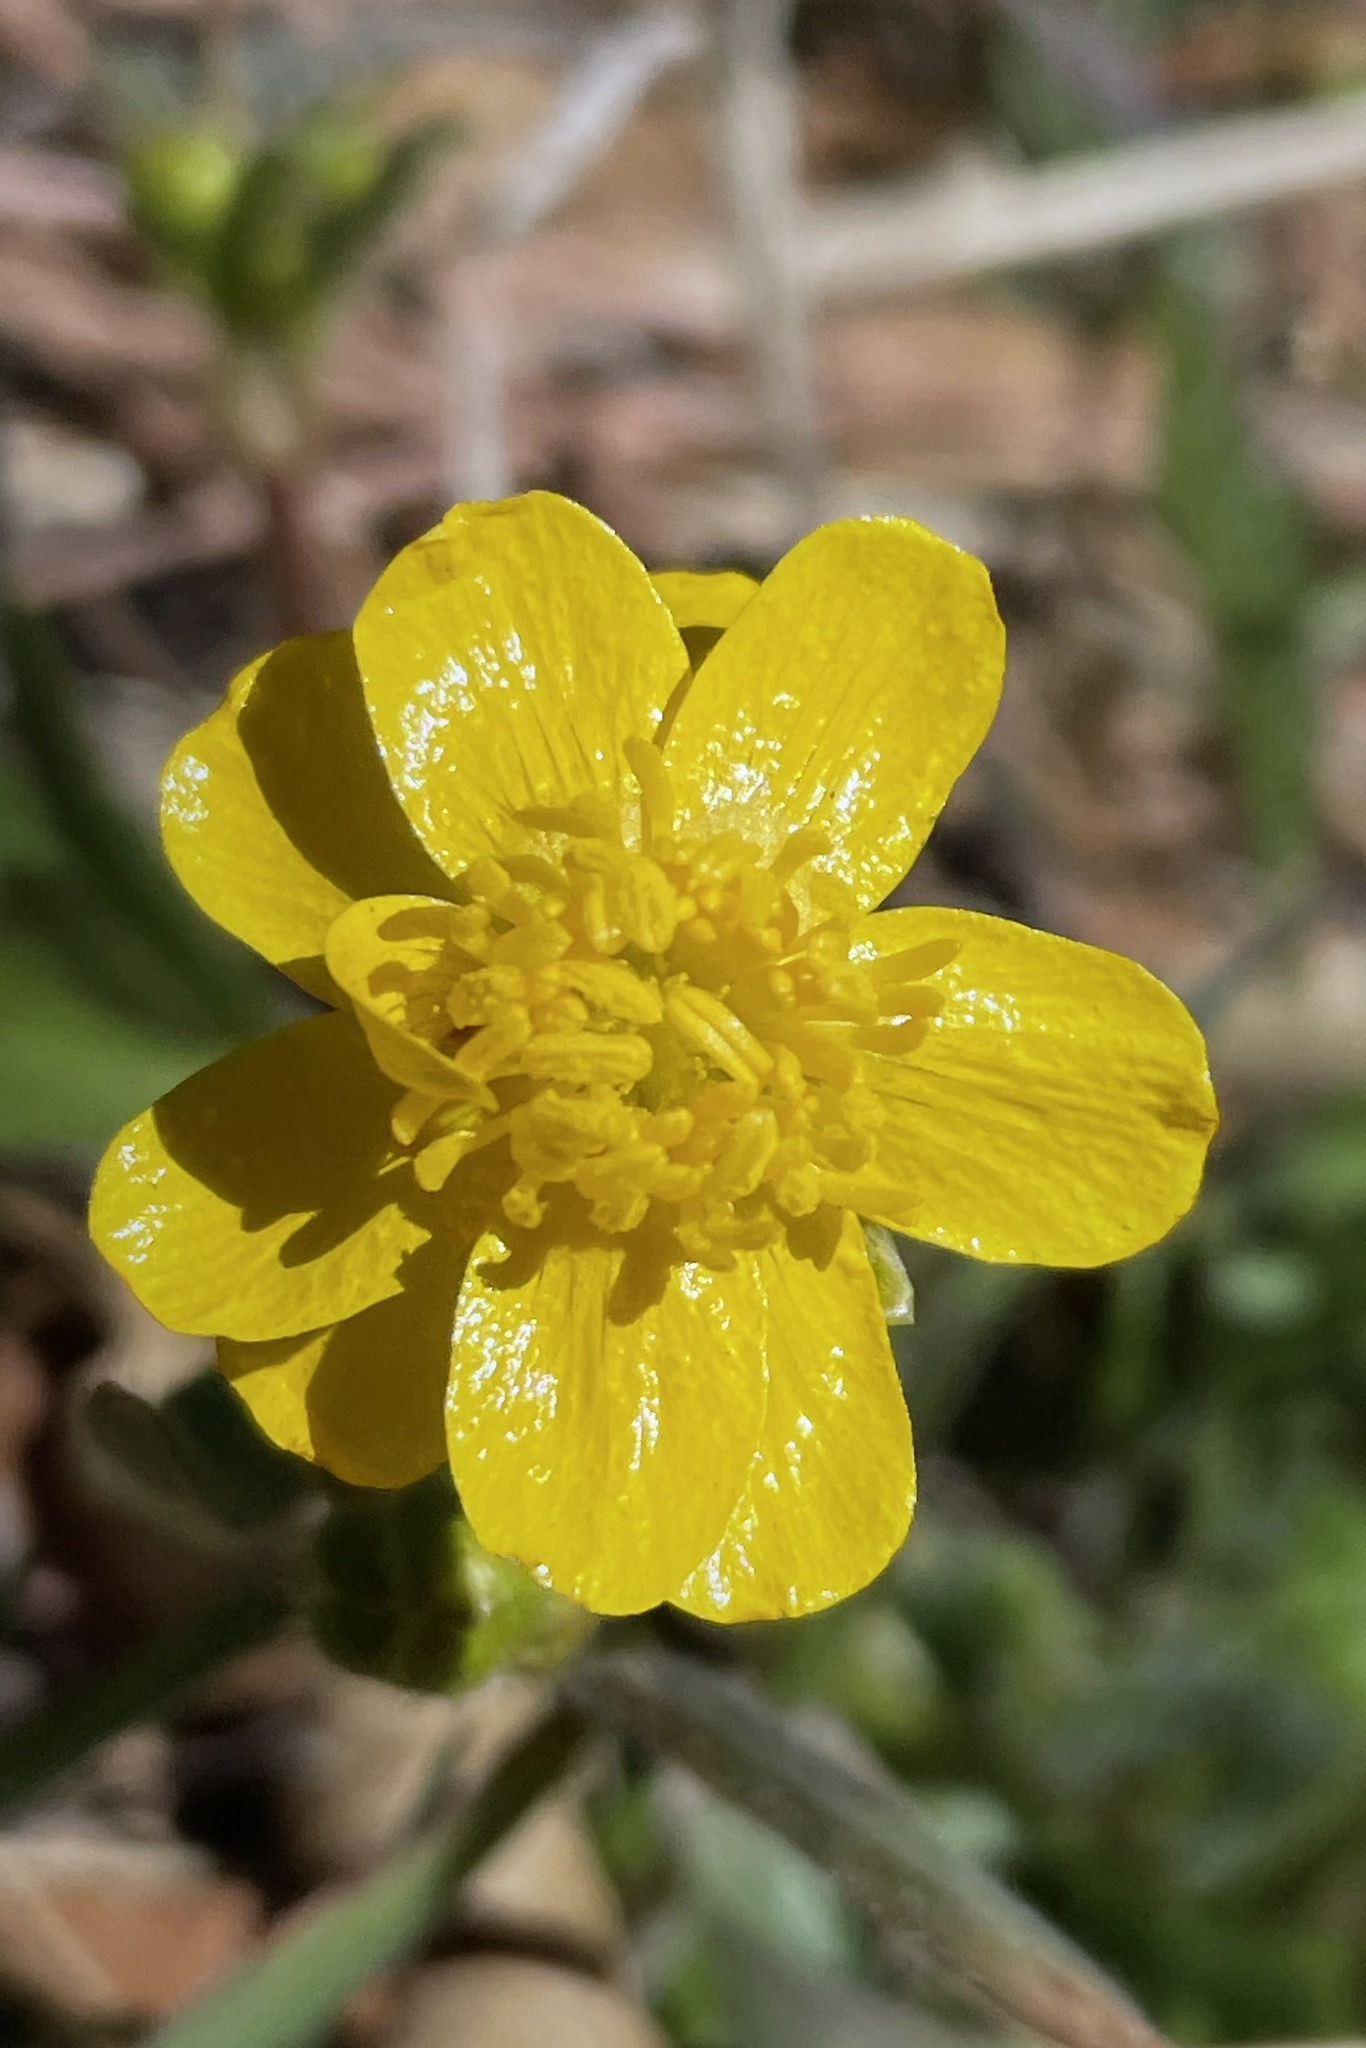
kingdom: Plantae
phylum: Tracheophyta
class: Magnoliopsida
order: Ranunculales
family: Ranunculaceae
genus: Ranunculus
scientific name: Ranunculus californicus
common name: California buttercup
